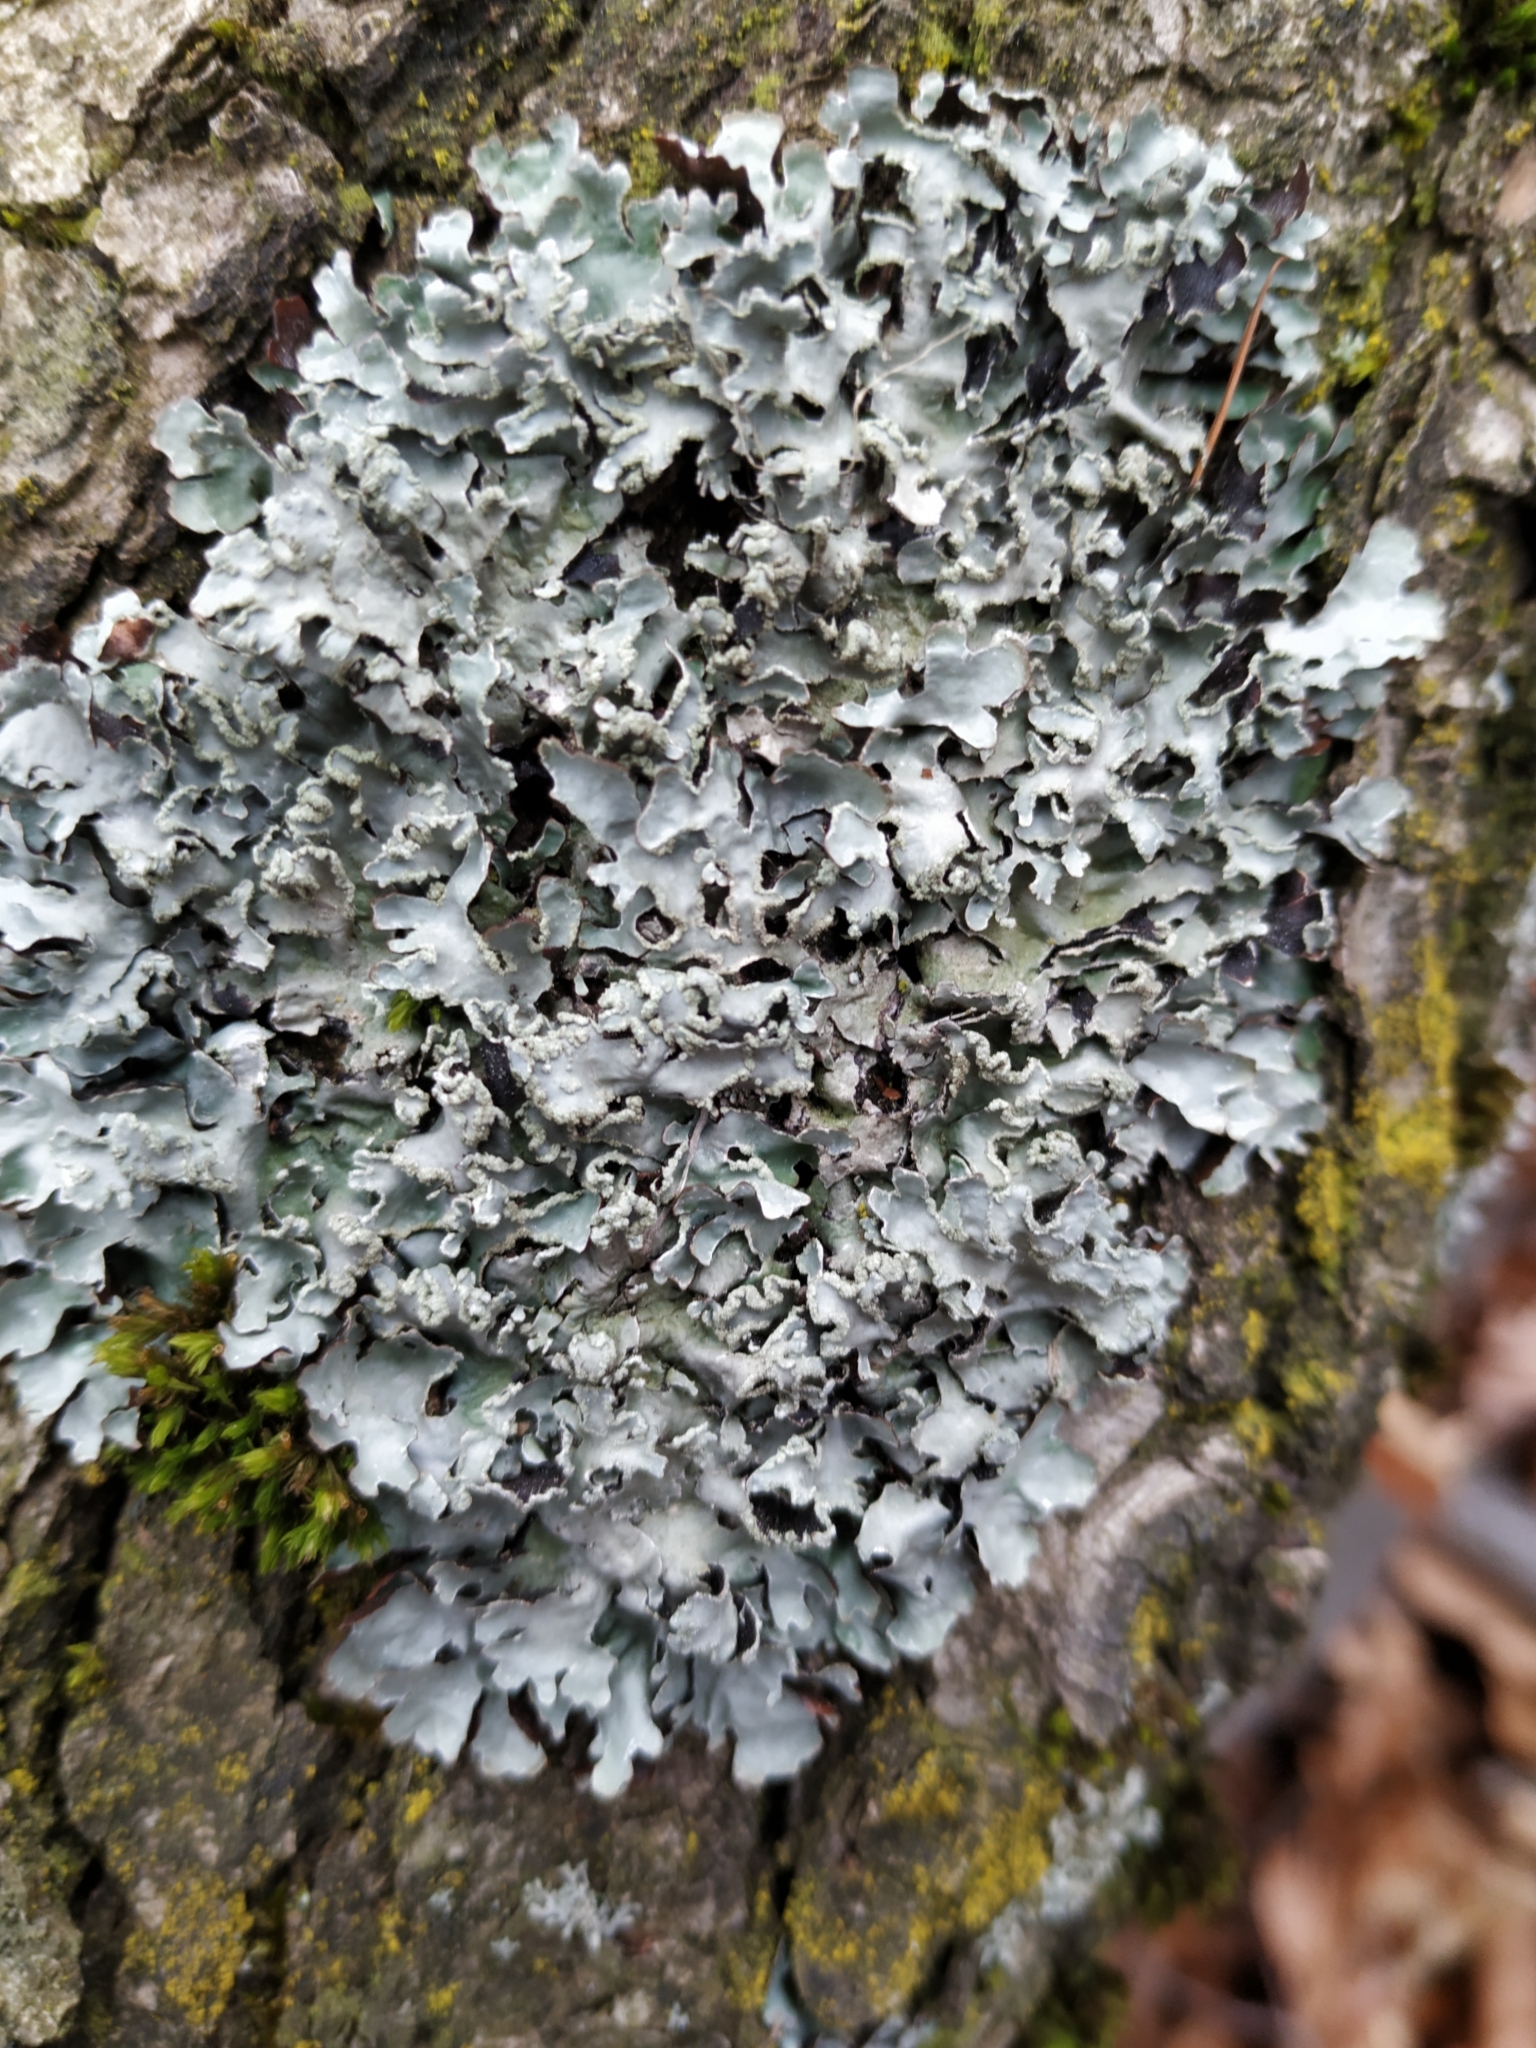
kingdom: Fungi
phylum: Ascomycota
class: Lecanoromycetes
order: Lecanorales
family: Parmeliaceae
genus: Parmelia
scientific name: Parmelia sulcata
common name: Netted shield lichen
